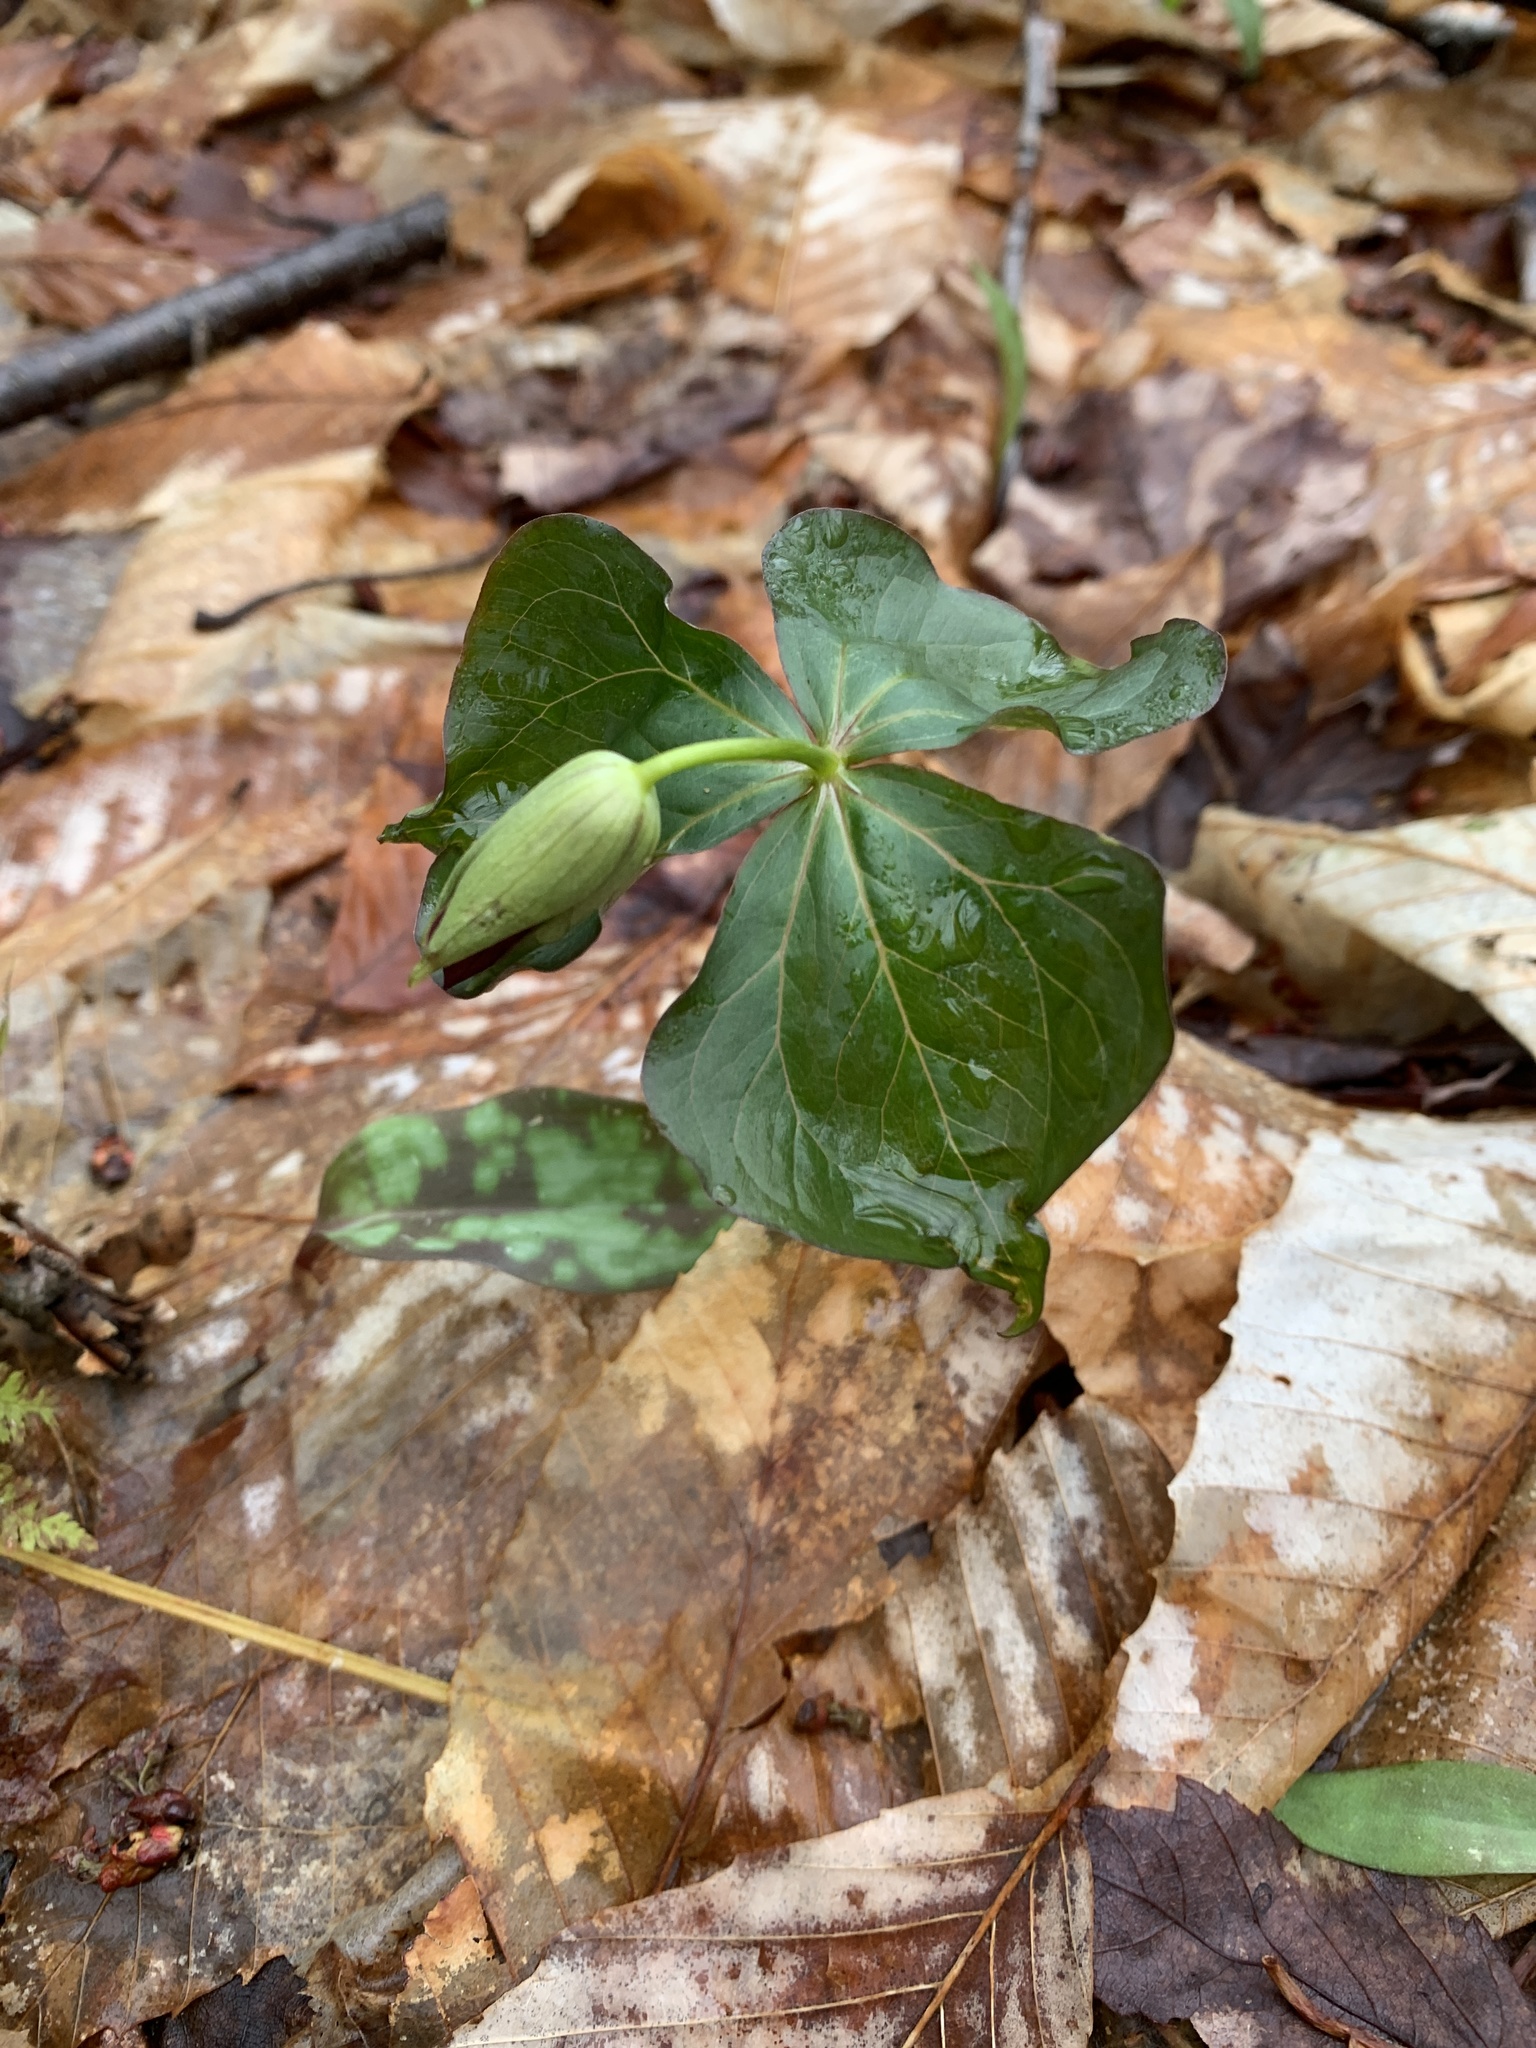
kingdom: Plantae
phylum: Tracheophyta
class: Liliopsida
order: Liliales
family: Melanthiaceae
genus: Trillium
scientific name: Trillium erectum
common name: Purple trillium
